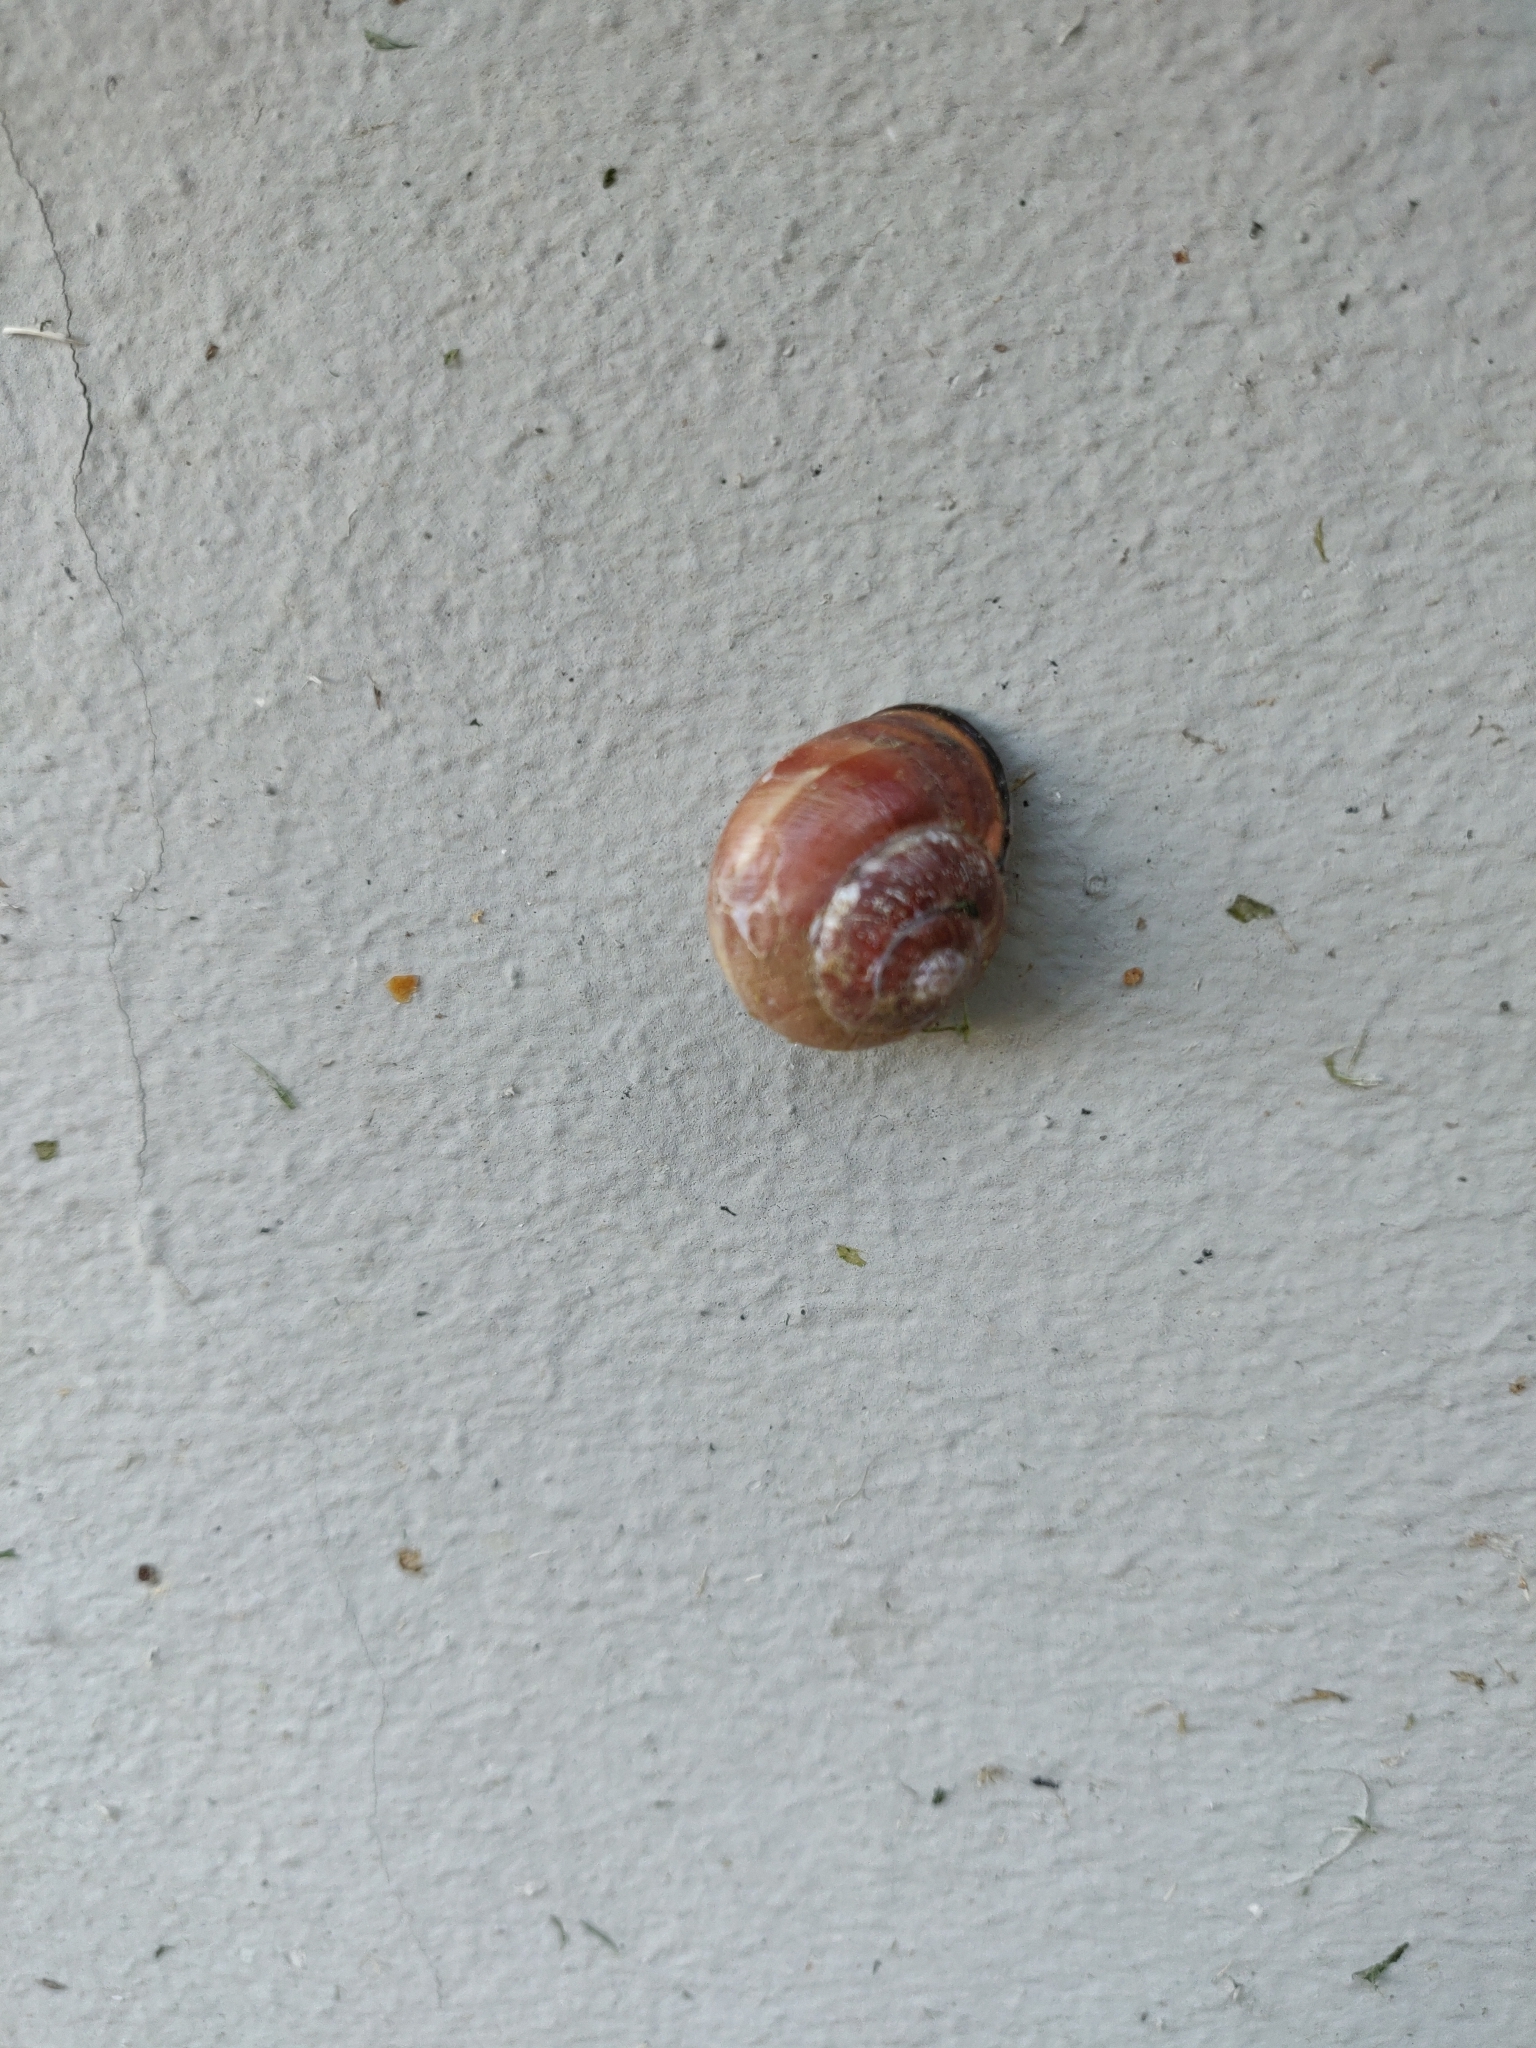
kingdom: Animalia
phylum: Mollusca
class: Gastropoda
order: Stylommatophora
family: Helicidae
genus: Cepaea
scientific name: Cepaea nemoralis
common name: Grovesnail
